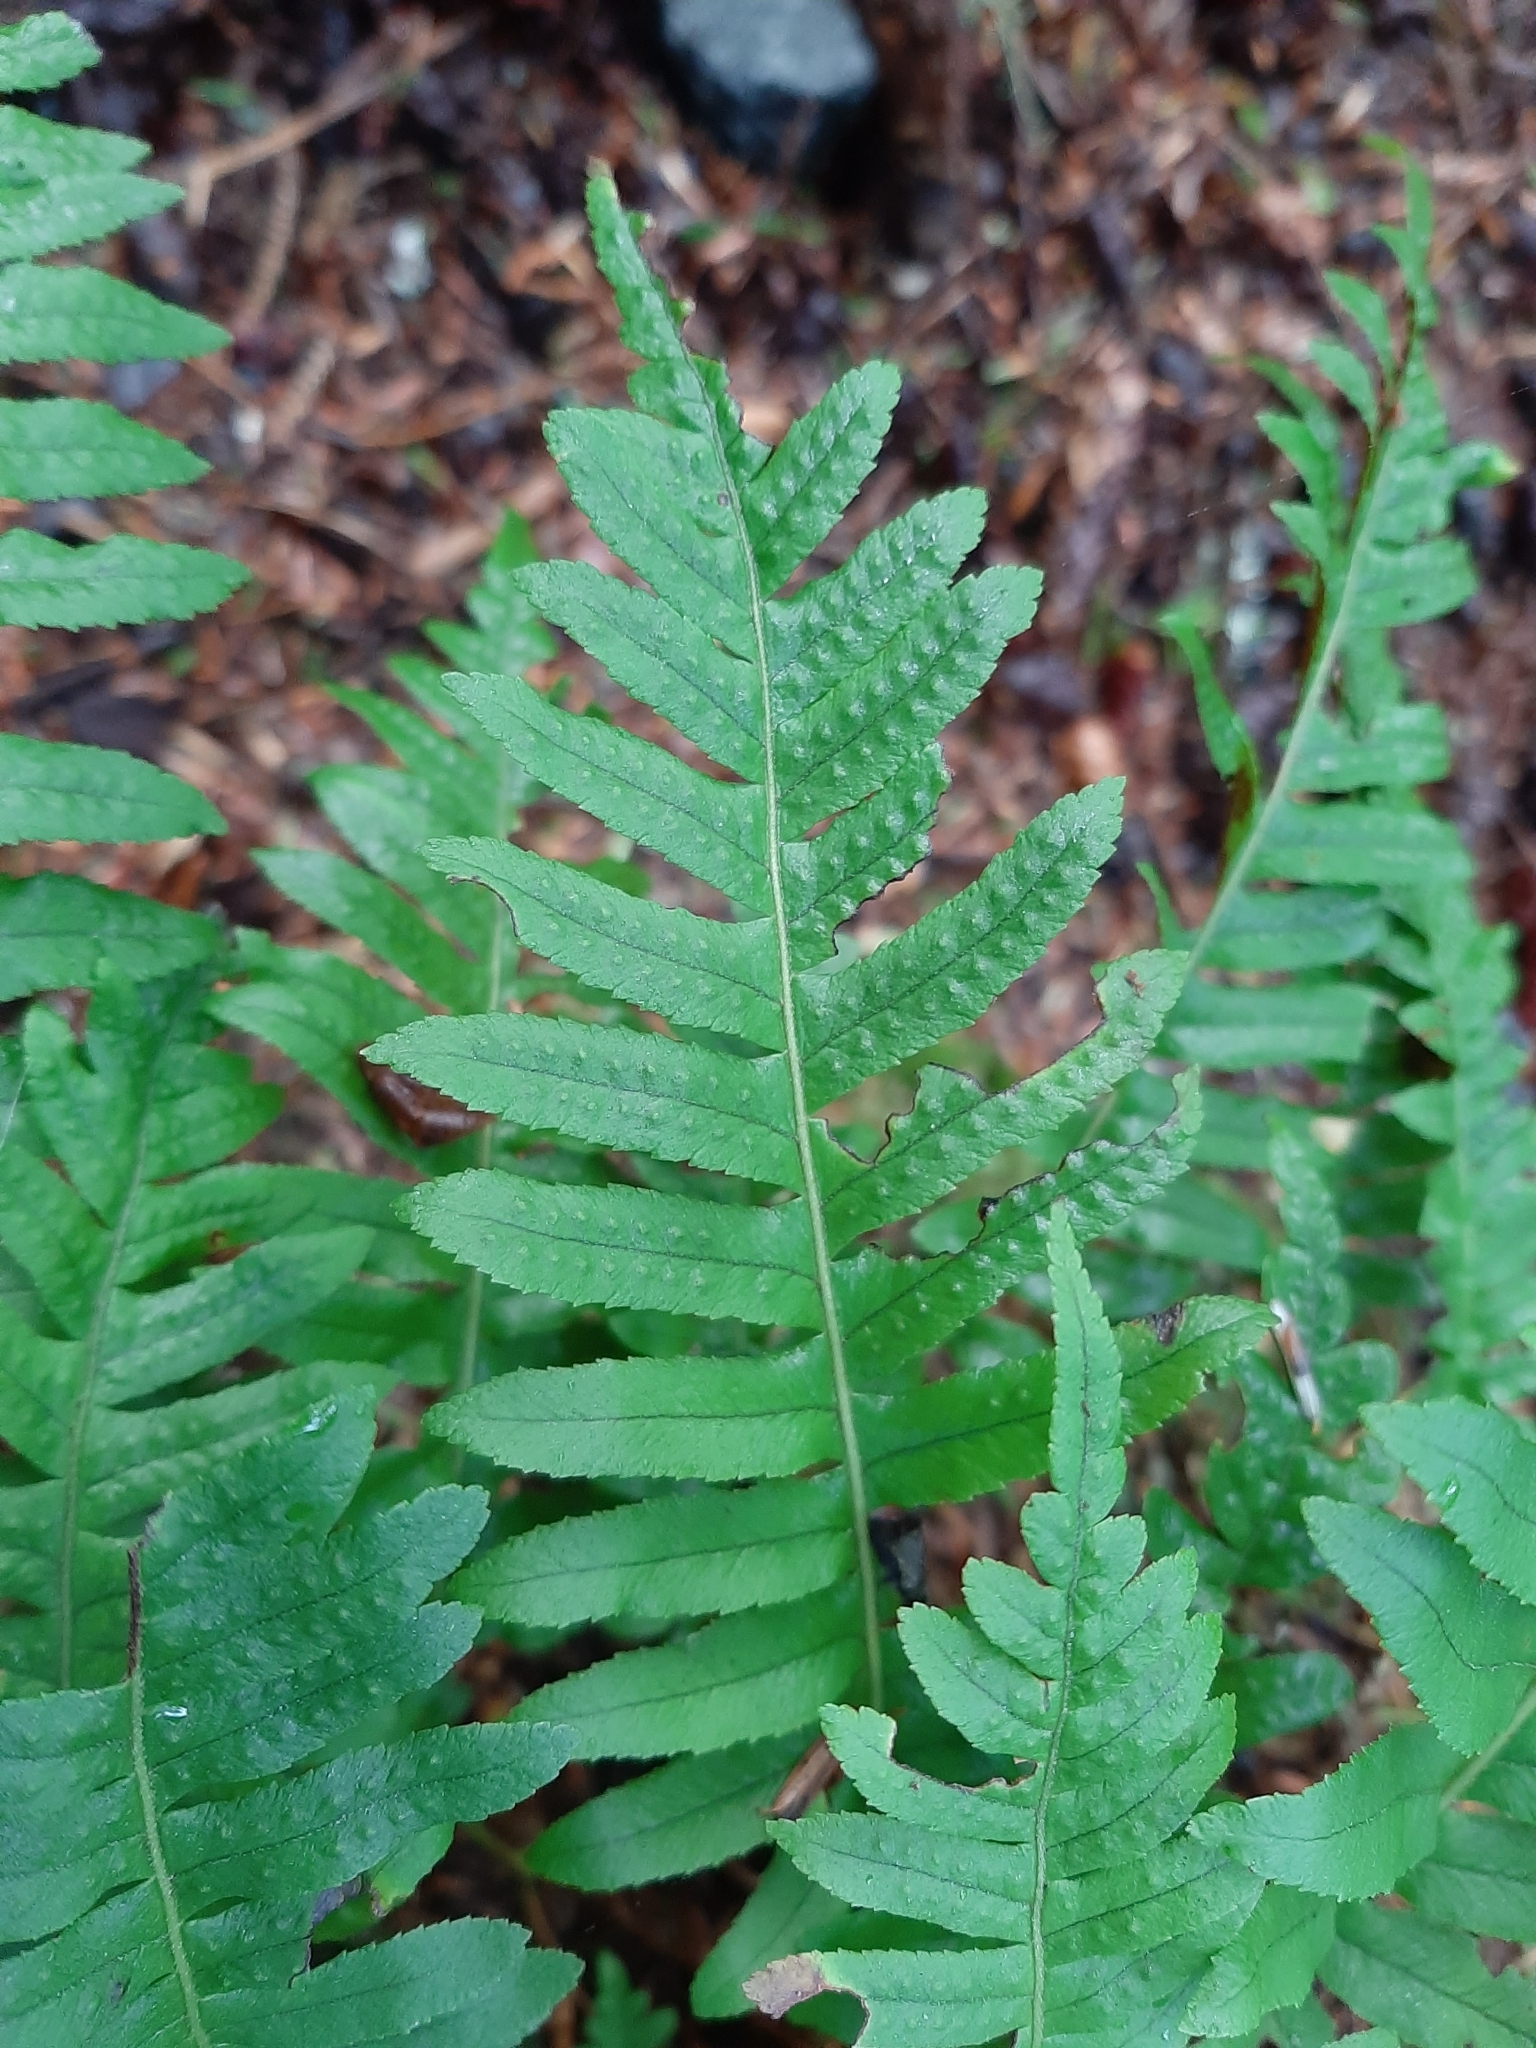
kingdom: Plantae
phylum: Tracheophyta
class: Polypodiopsida
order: Polypodiales
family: Polypodiaceae
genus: Polypodium
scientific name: Polypodium glycyrrhiza
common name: Licorice fern
